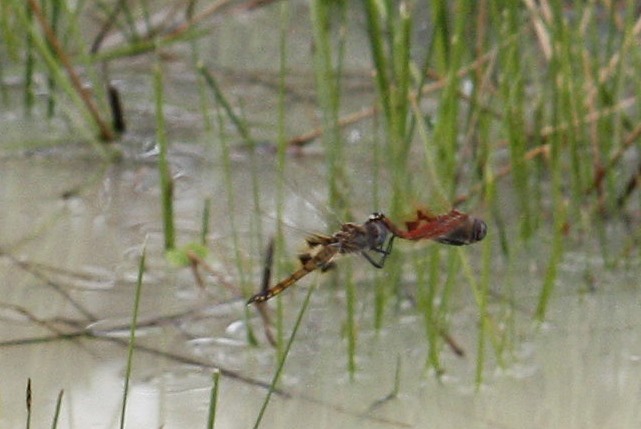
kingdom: Animalia
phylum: Arthropoda
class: Insecta
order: Odonata
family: Libellulidae
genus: Tramea
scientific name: Tramea basilaris
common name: Keyhole glider
